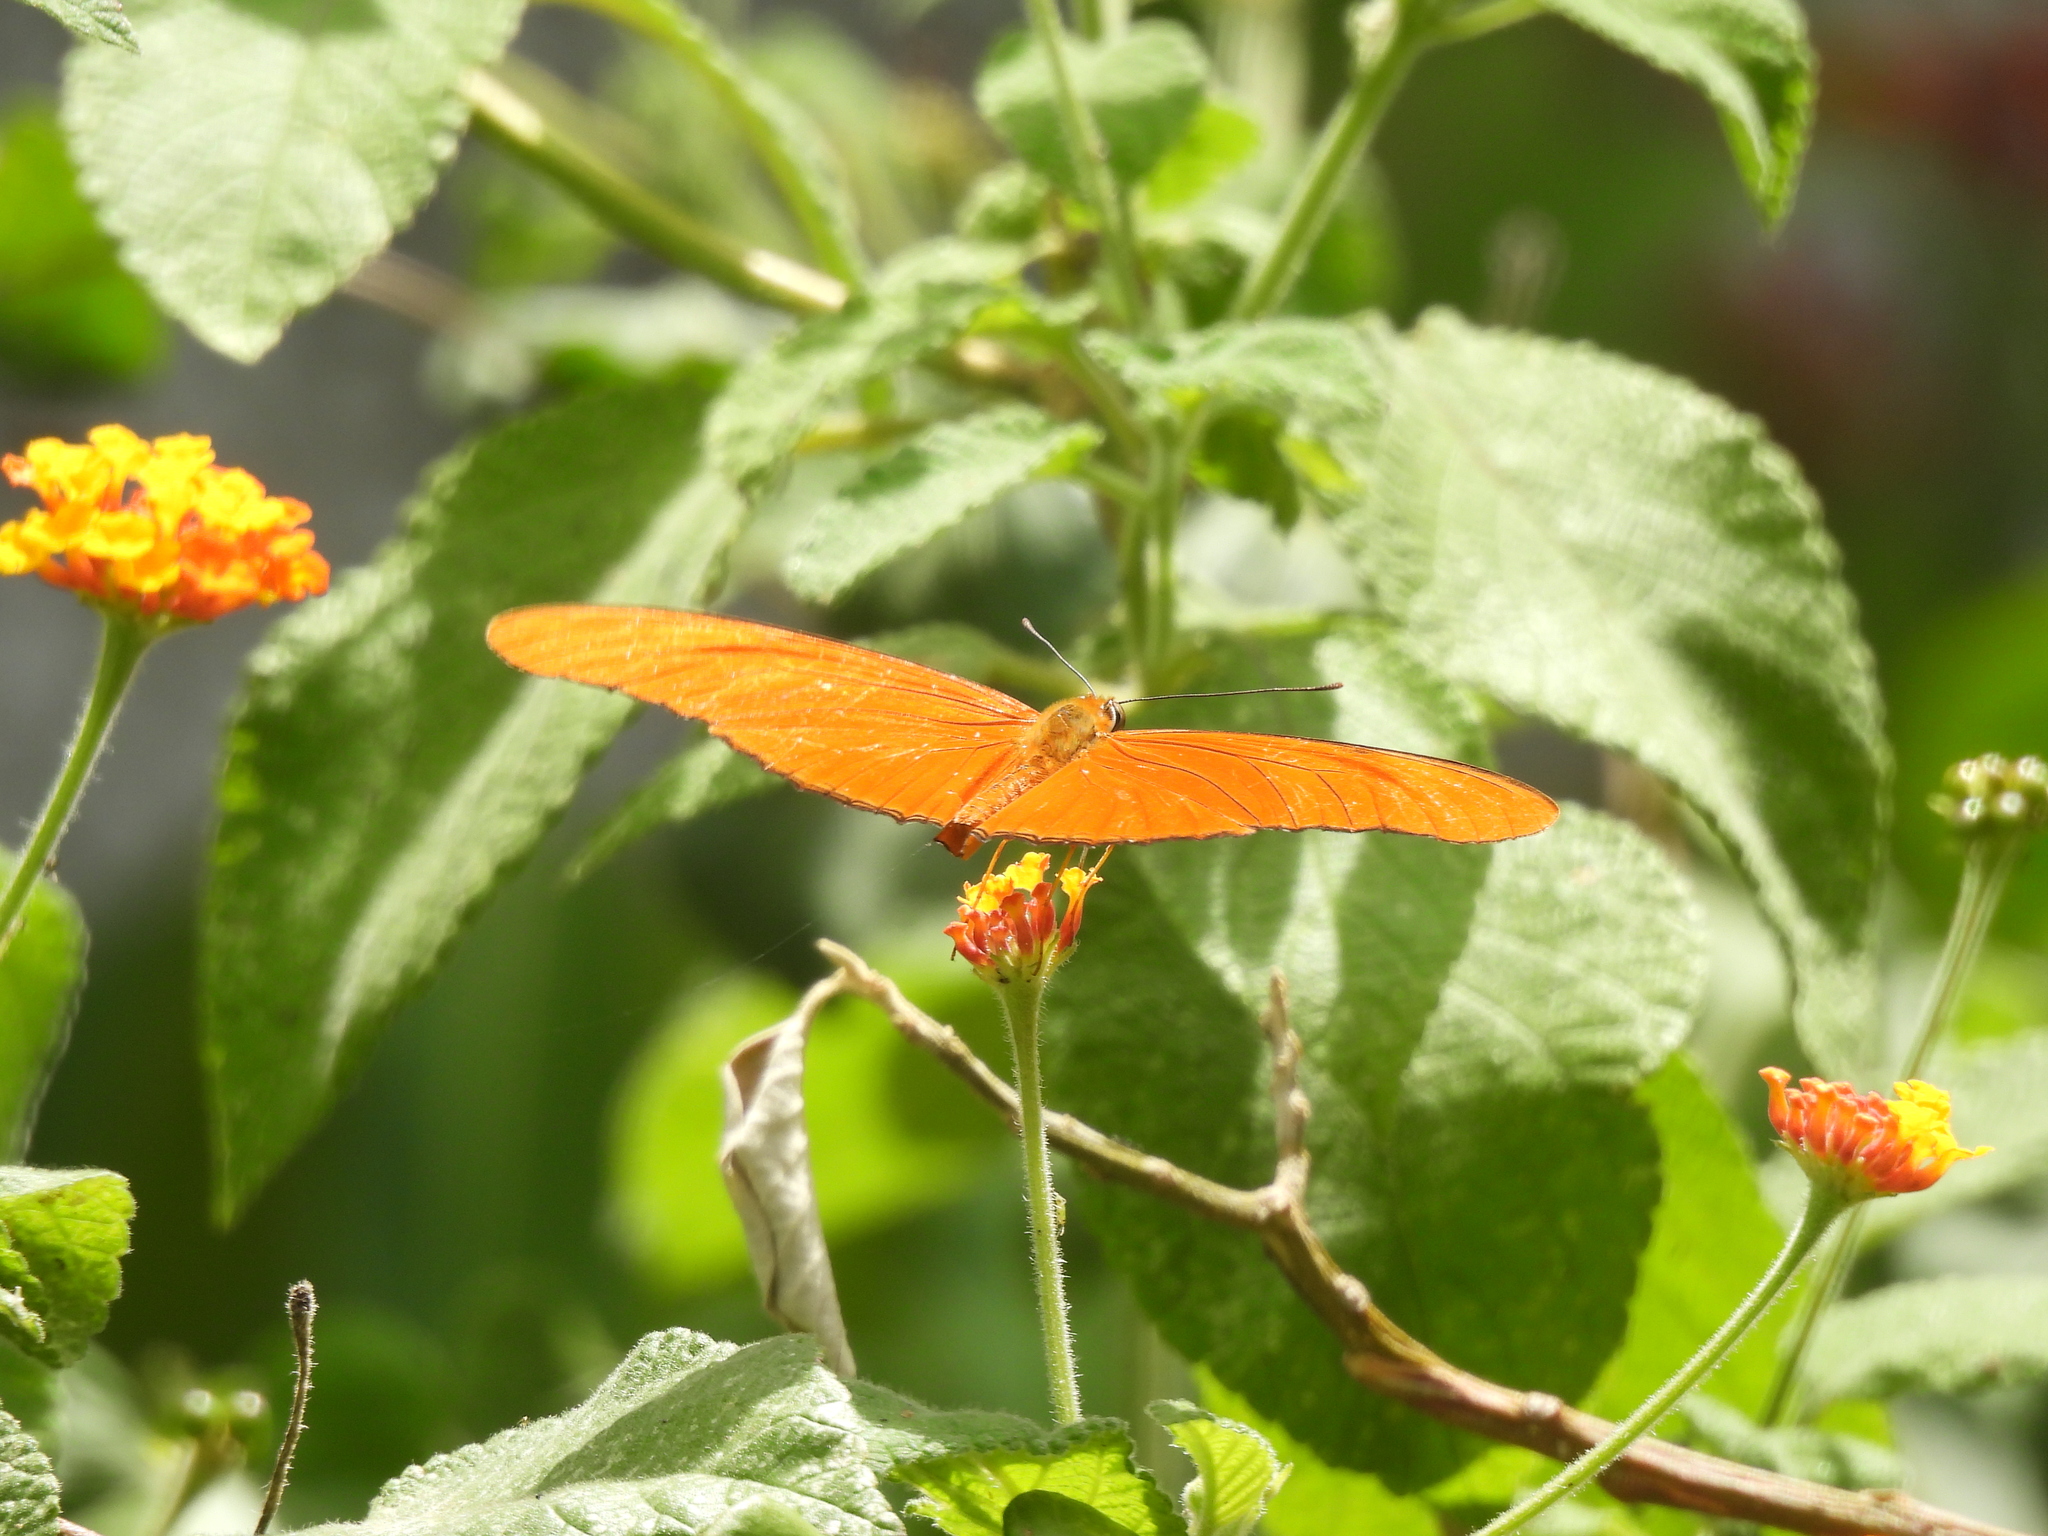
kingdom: Animalia
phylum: Arthropoda
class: Insecta
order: Lepidoptera
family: Nymphalidae
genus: Dryas
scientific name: Dryas iulia
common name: Flambeau
